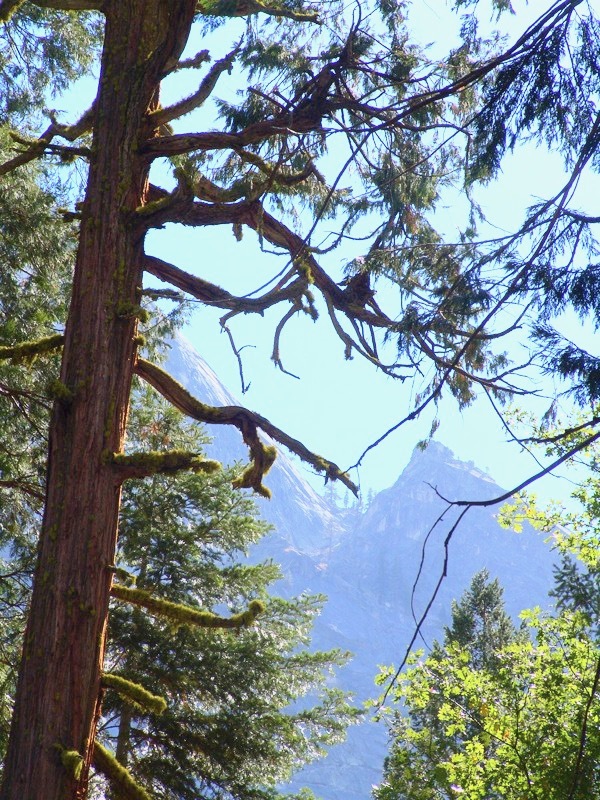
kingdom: Plantae
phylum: Tracheophyta
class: Pinopsida
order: Pinales
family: Cupressaceae
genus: Calocedrus
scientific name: Calocedrus decurrens
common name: Californian incense-cedar
